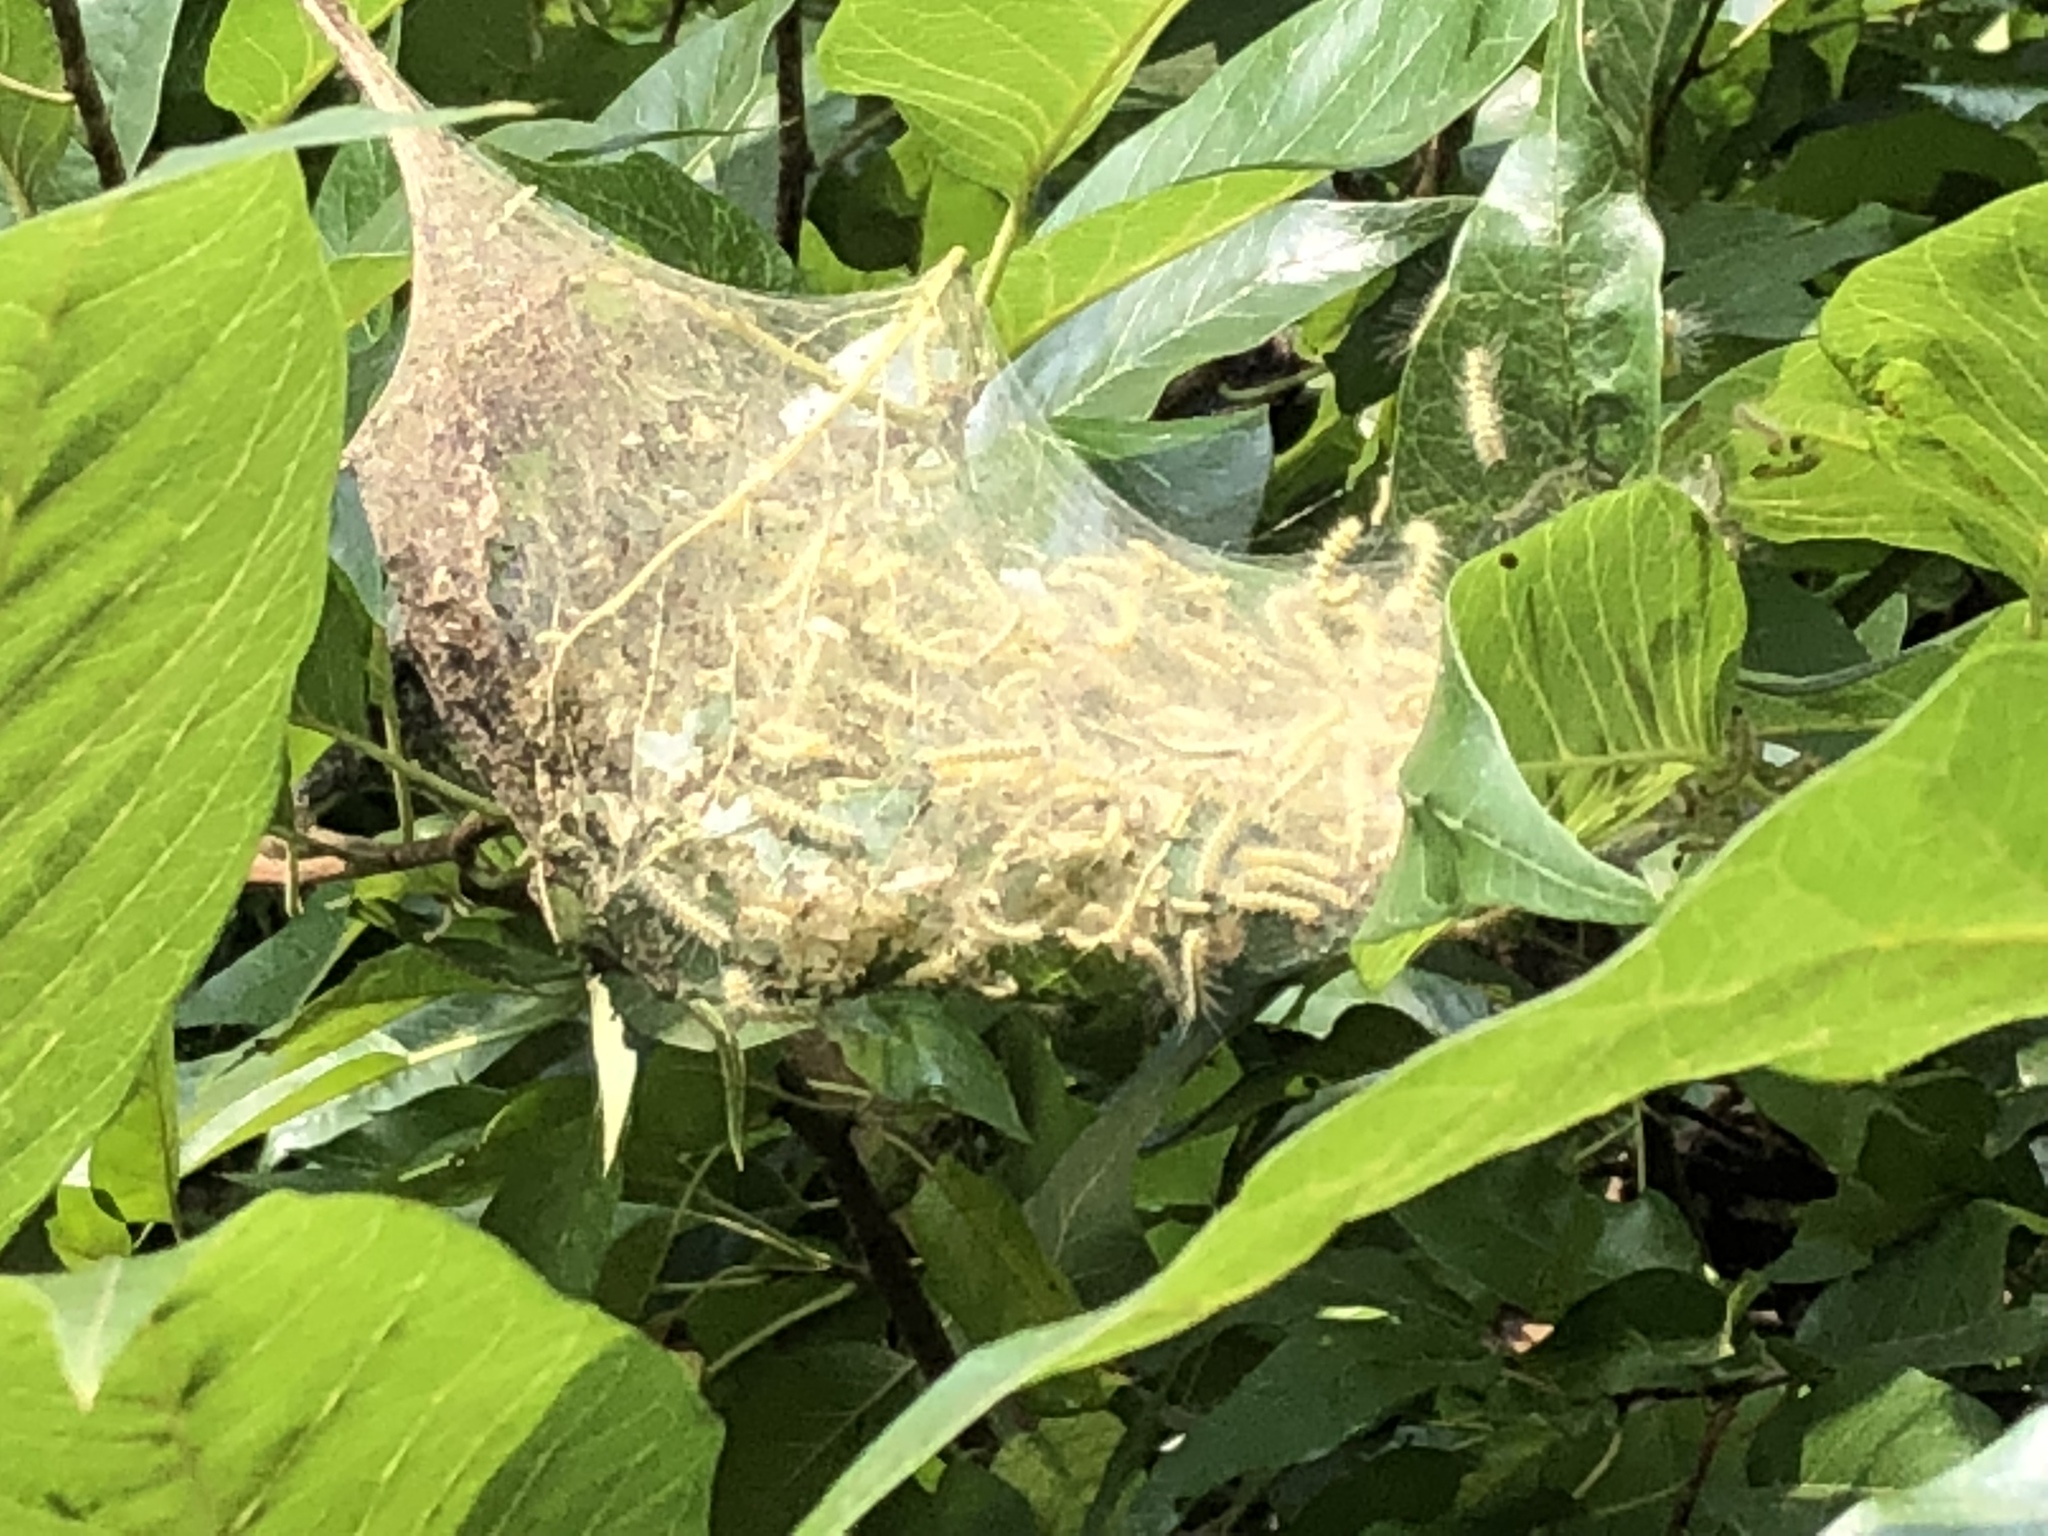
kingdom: Animalia
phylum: Arthropoda
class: Insecta
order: Lepidoptera
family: Erebidae
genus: Hyphantria
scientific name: Hyphantria cunea
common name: American white moth
